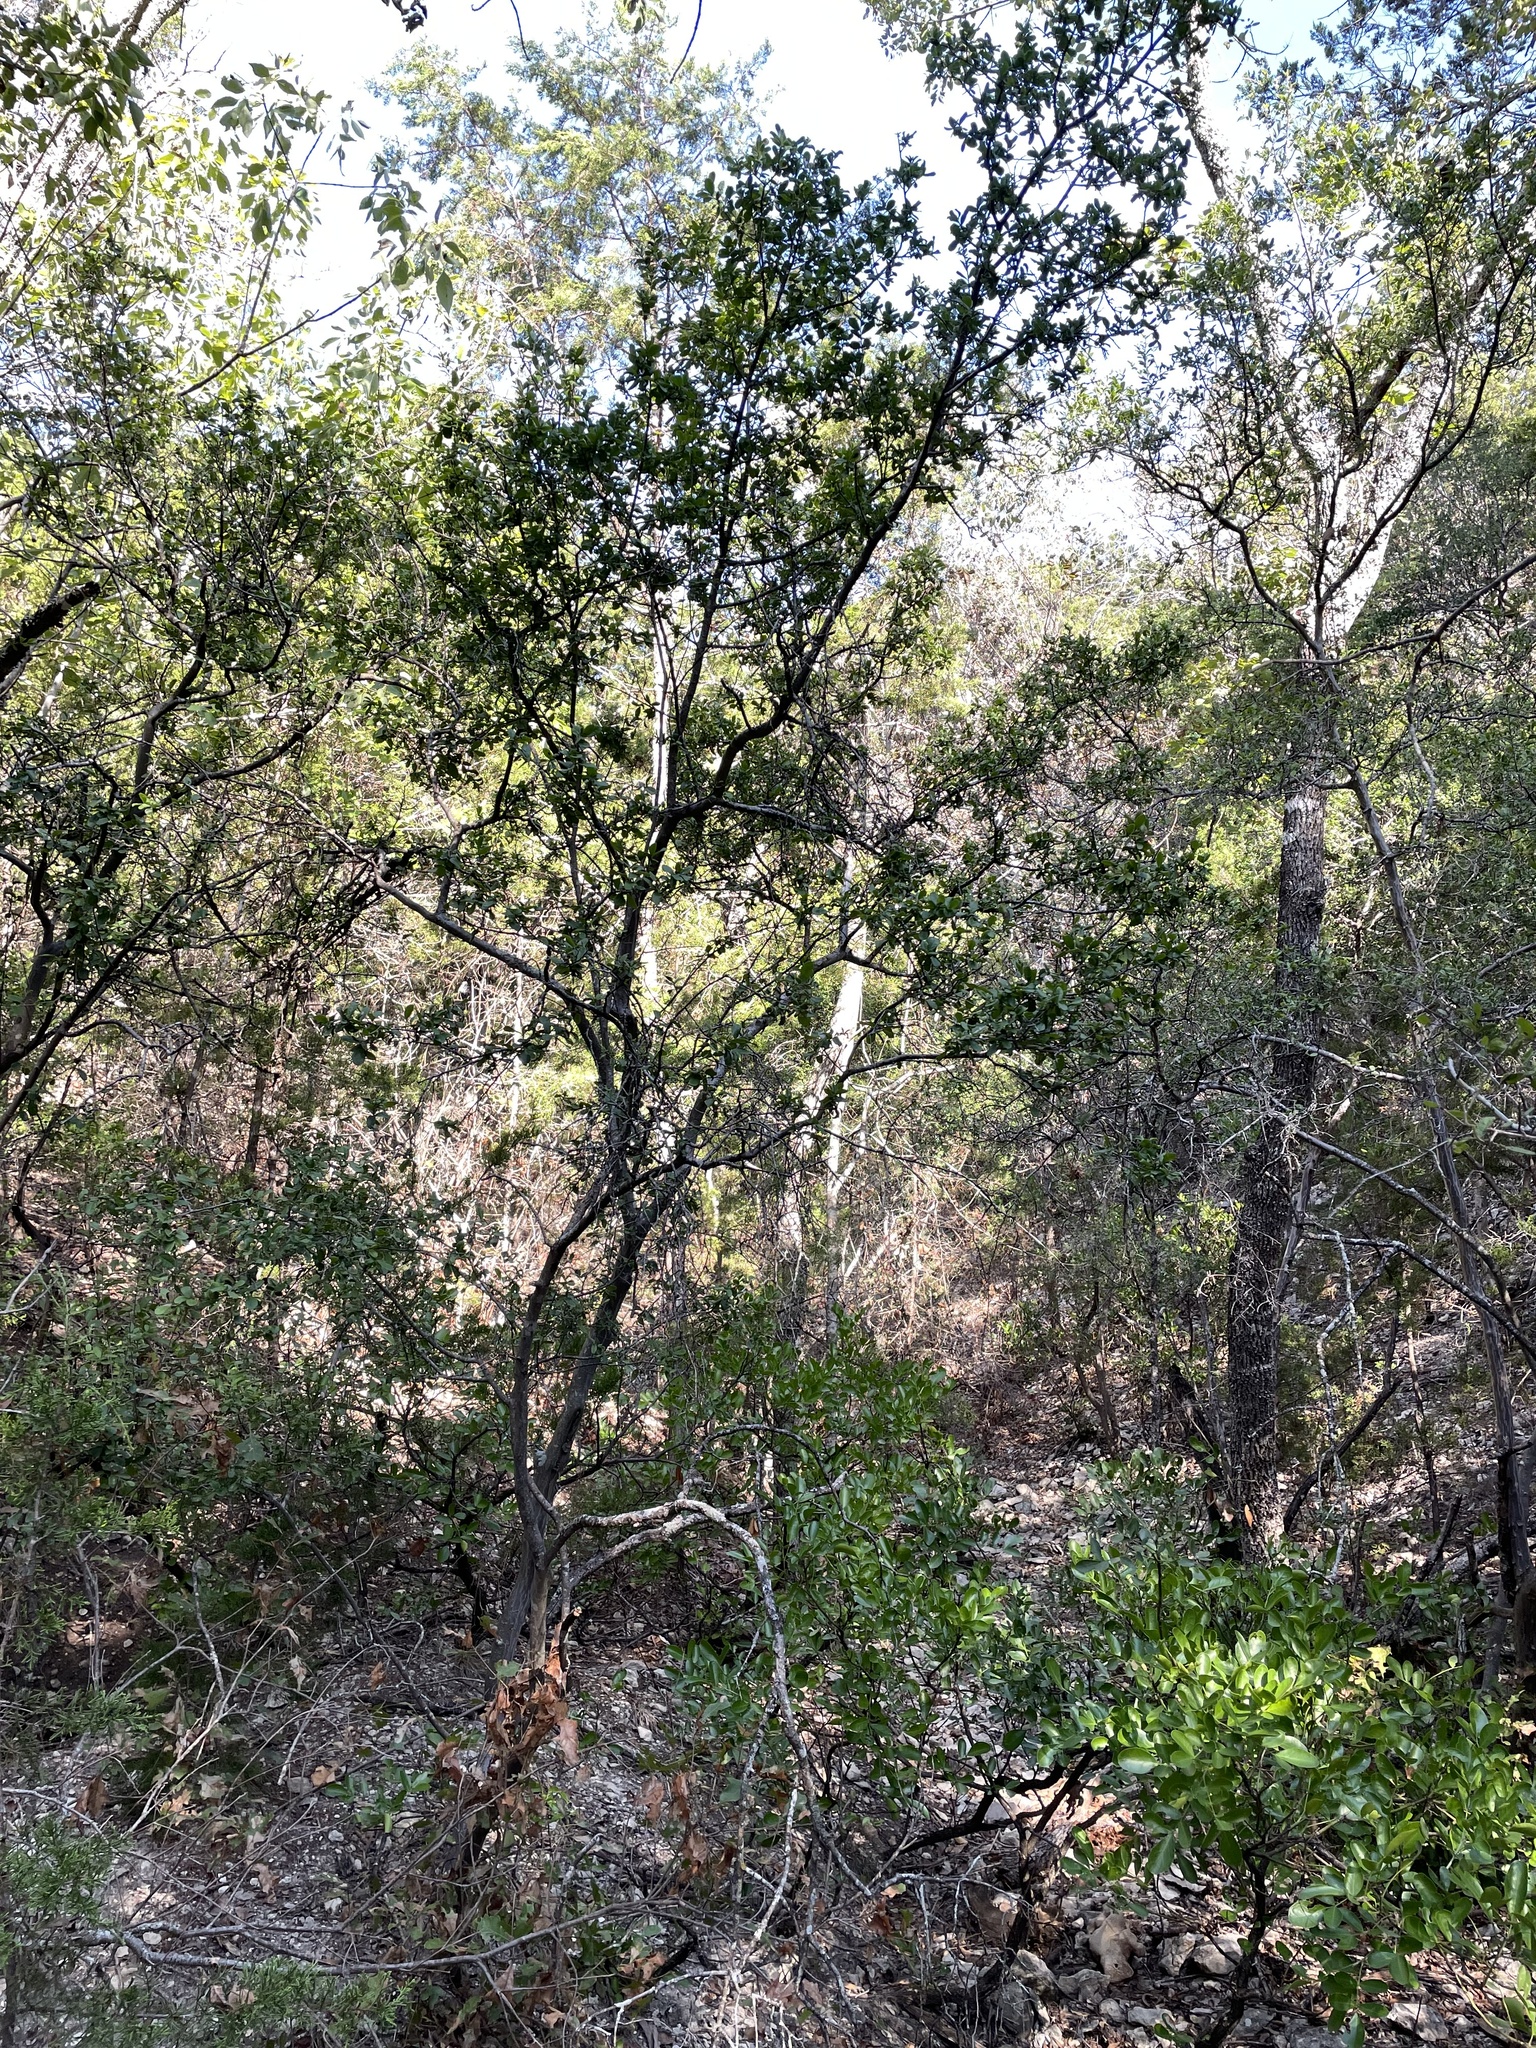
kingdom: Plantae
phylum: Tracheophyta
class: Magnoliopsida
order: Ericales
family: Ebenaceae
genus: Diospyros
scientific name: Diospyros texana
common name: Texas persimmon
